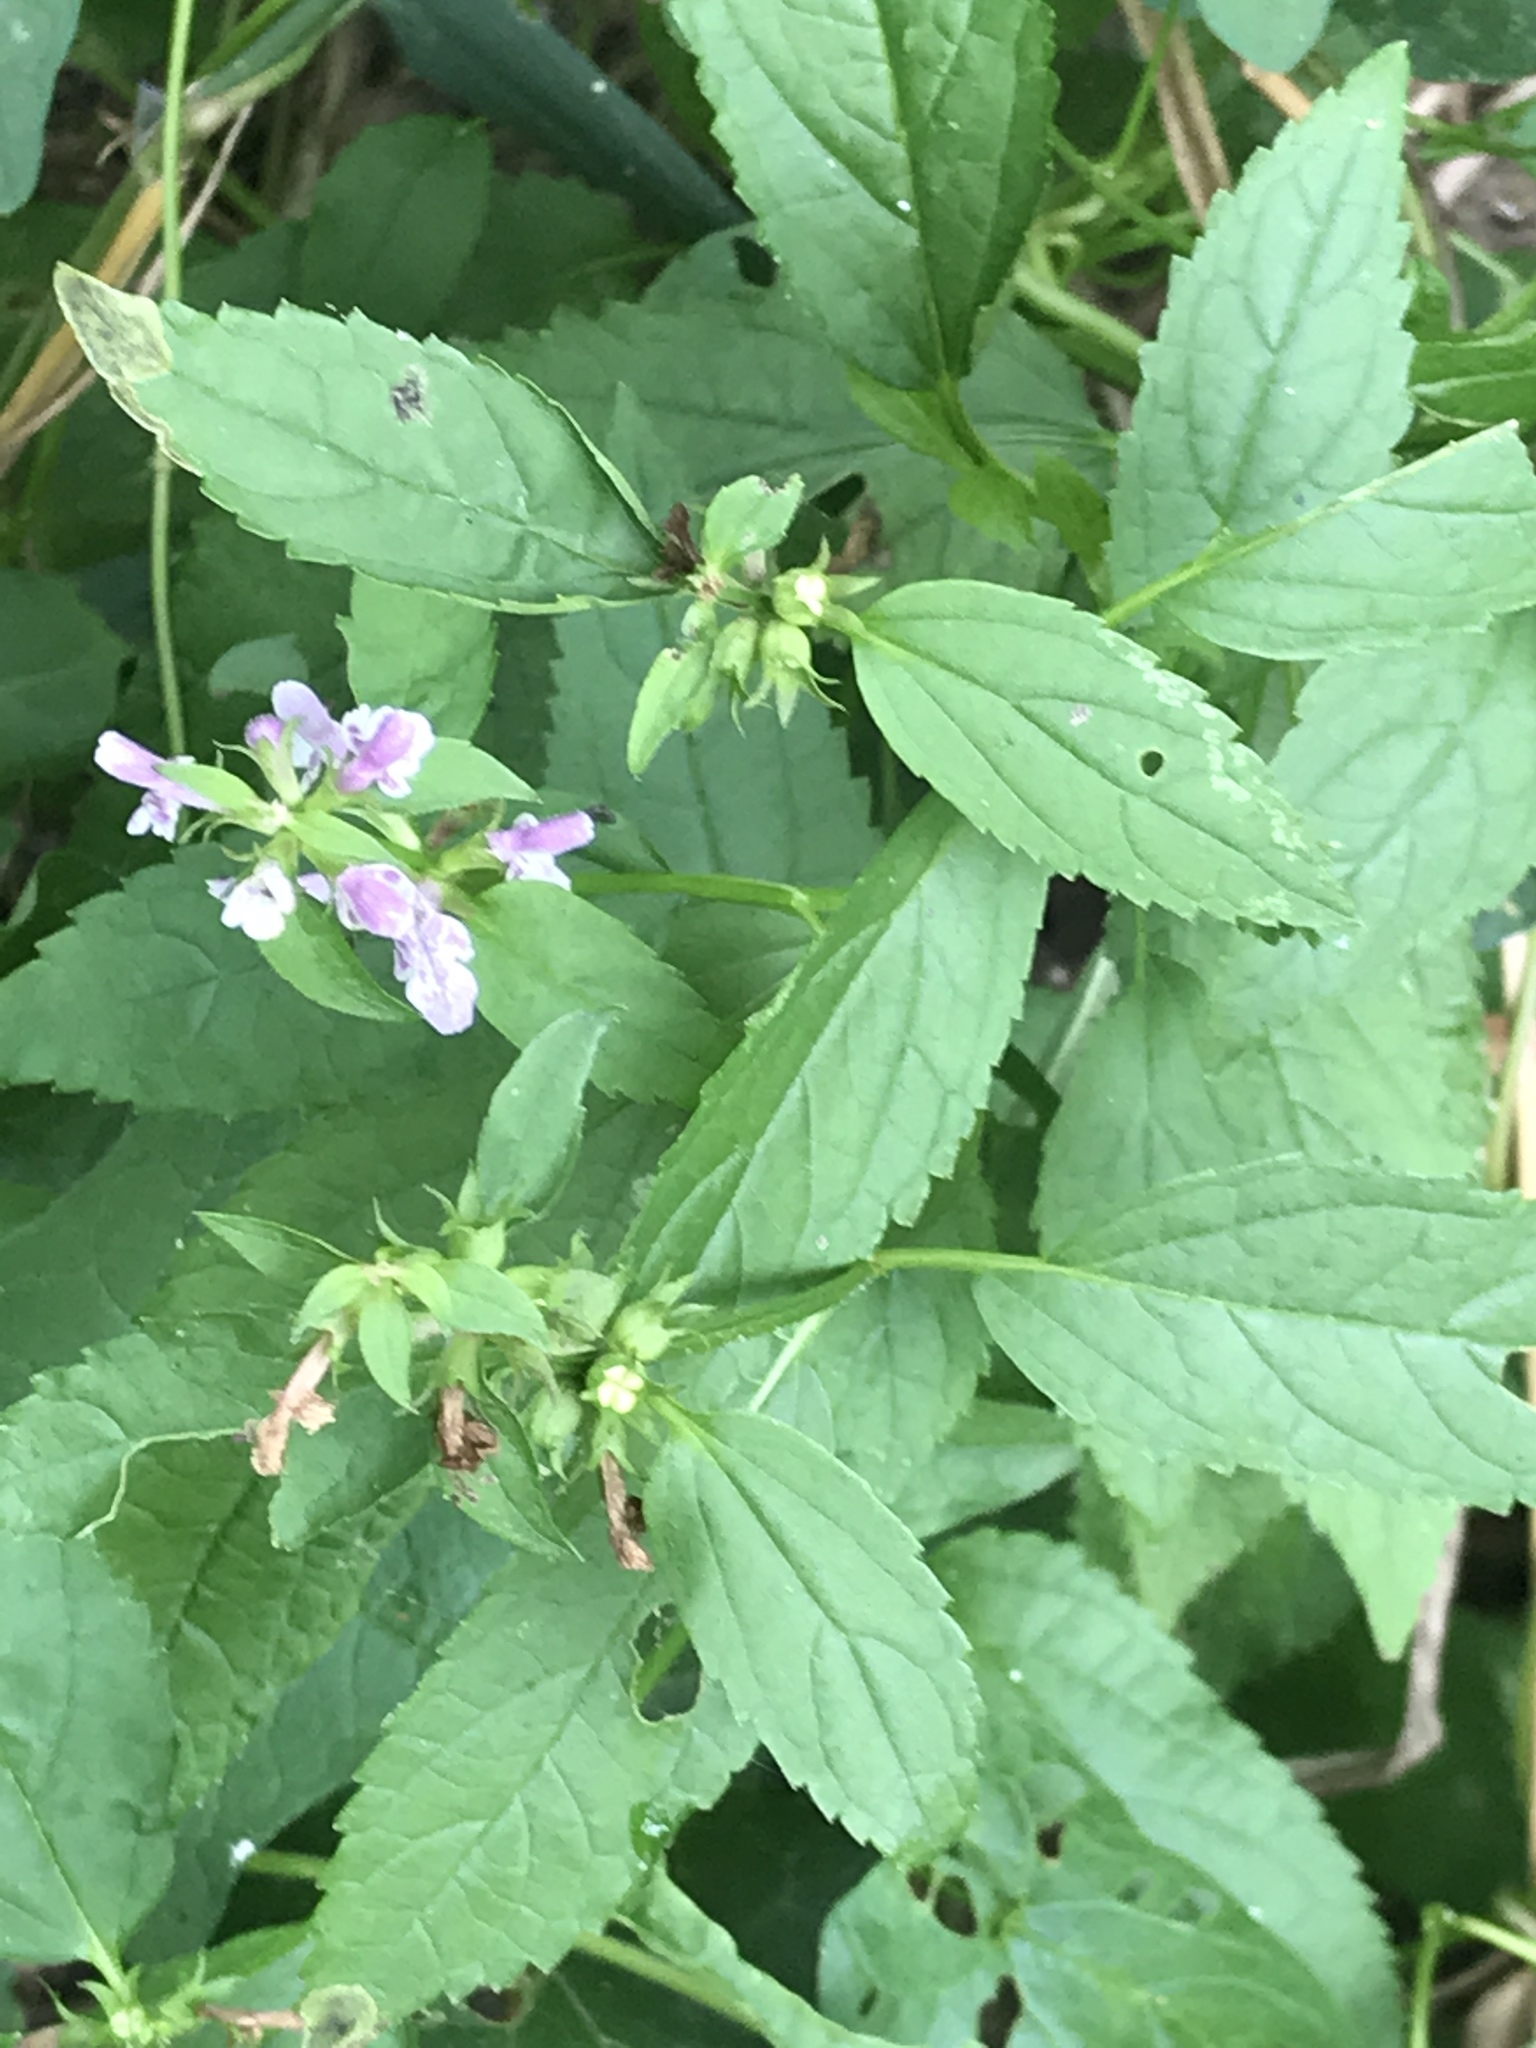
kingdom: Plantae
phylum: Tracheophyta
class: Magnoliopsida
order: Lamiales
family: Lamiaceae
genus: Stachys
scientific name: Stachys tenuifolia
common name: Smooth hedge-nettle
